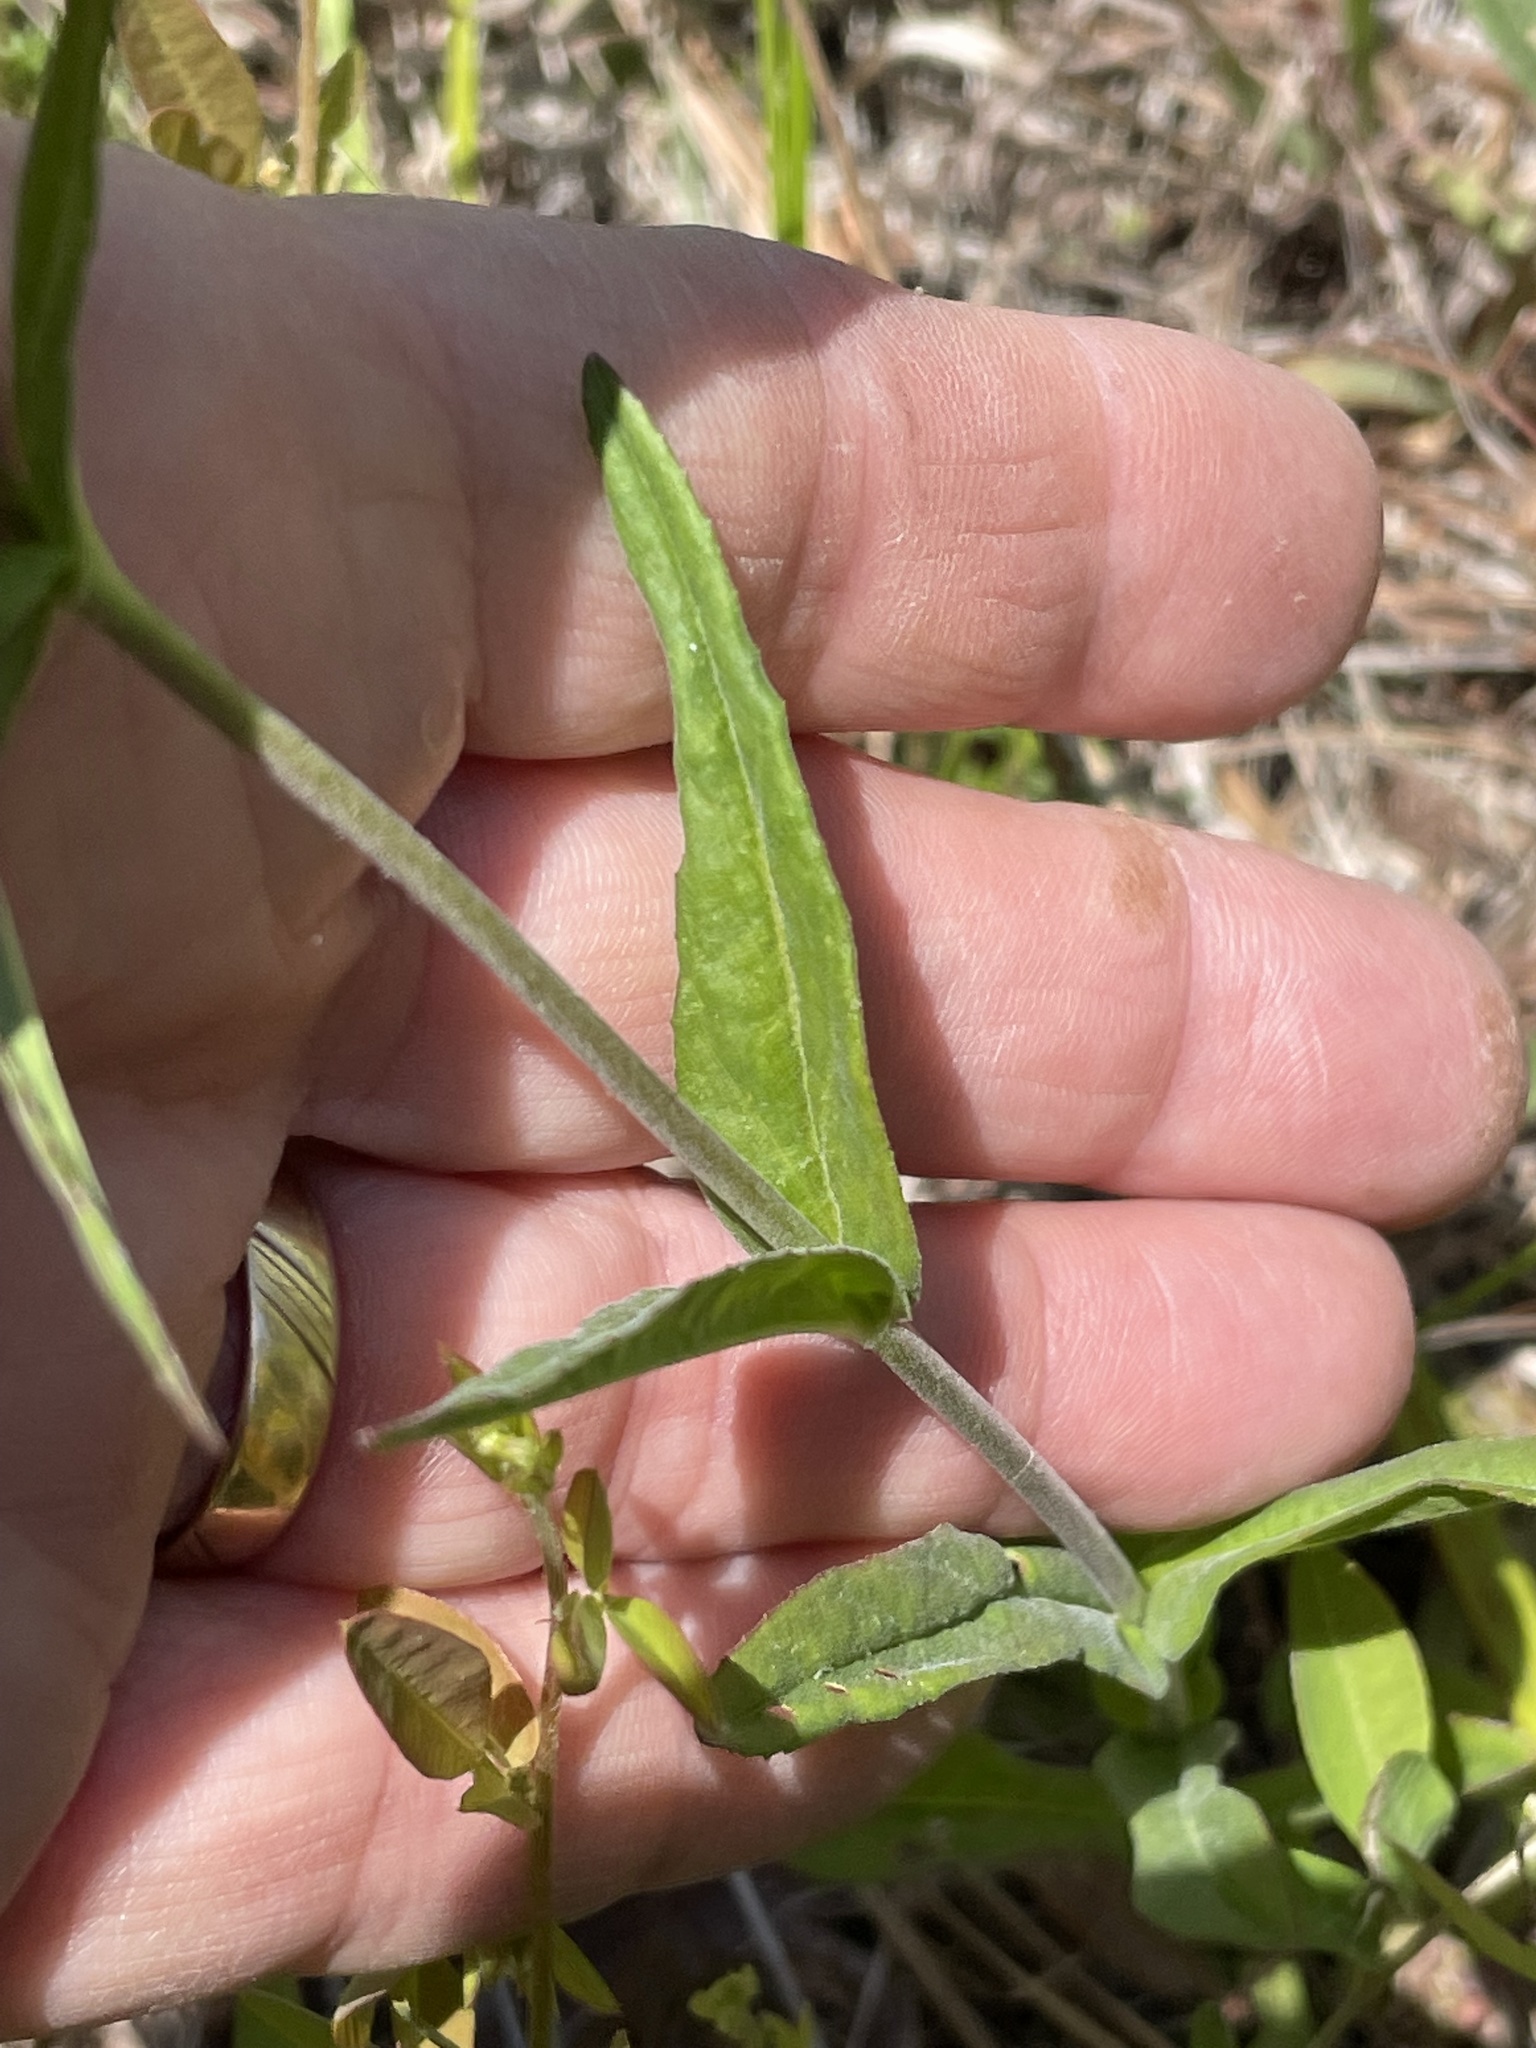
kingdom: Plantae
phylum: Tracheophyta
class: Magnoliopsida
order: Lamiales
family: Plantaginaceae
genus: Penstemon
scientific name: Penstemon laevigatus
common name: Eastern beardtongue
